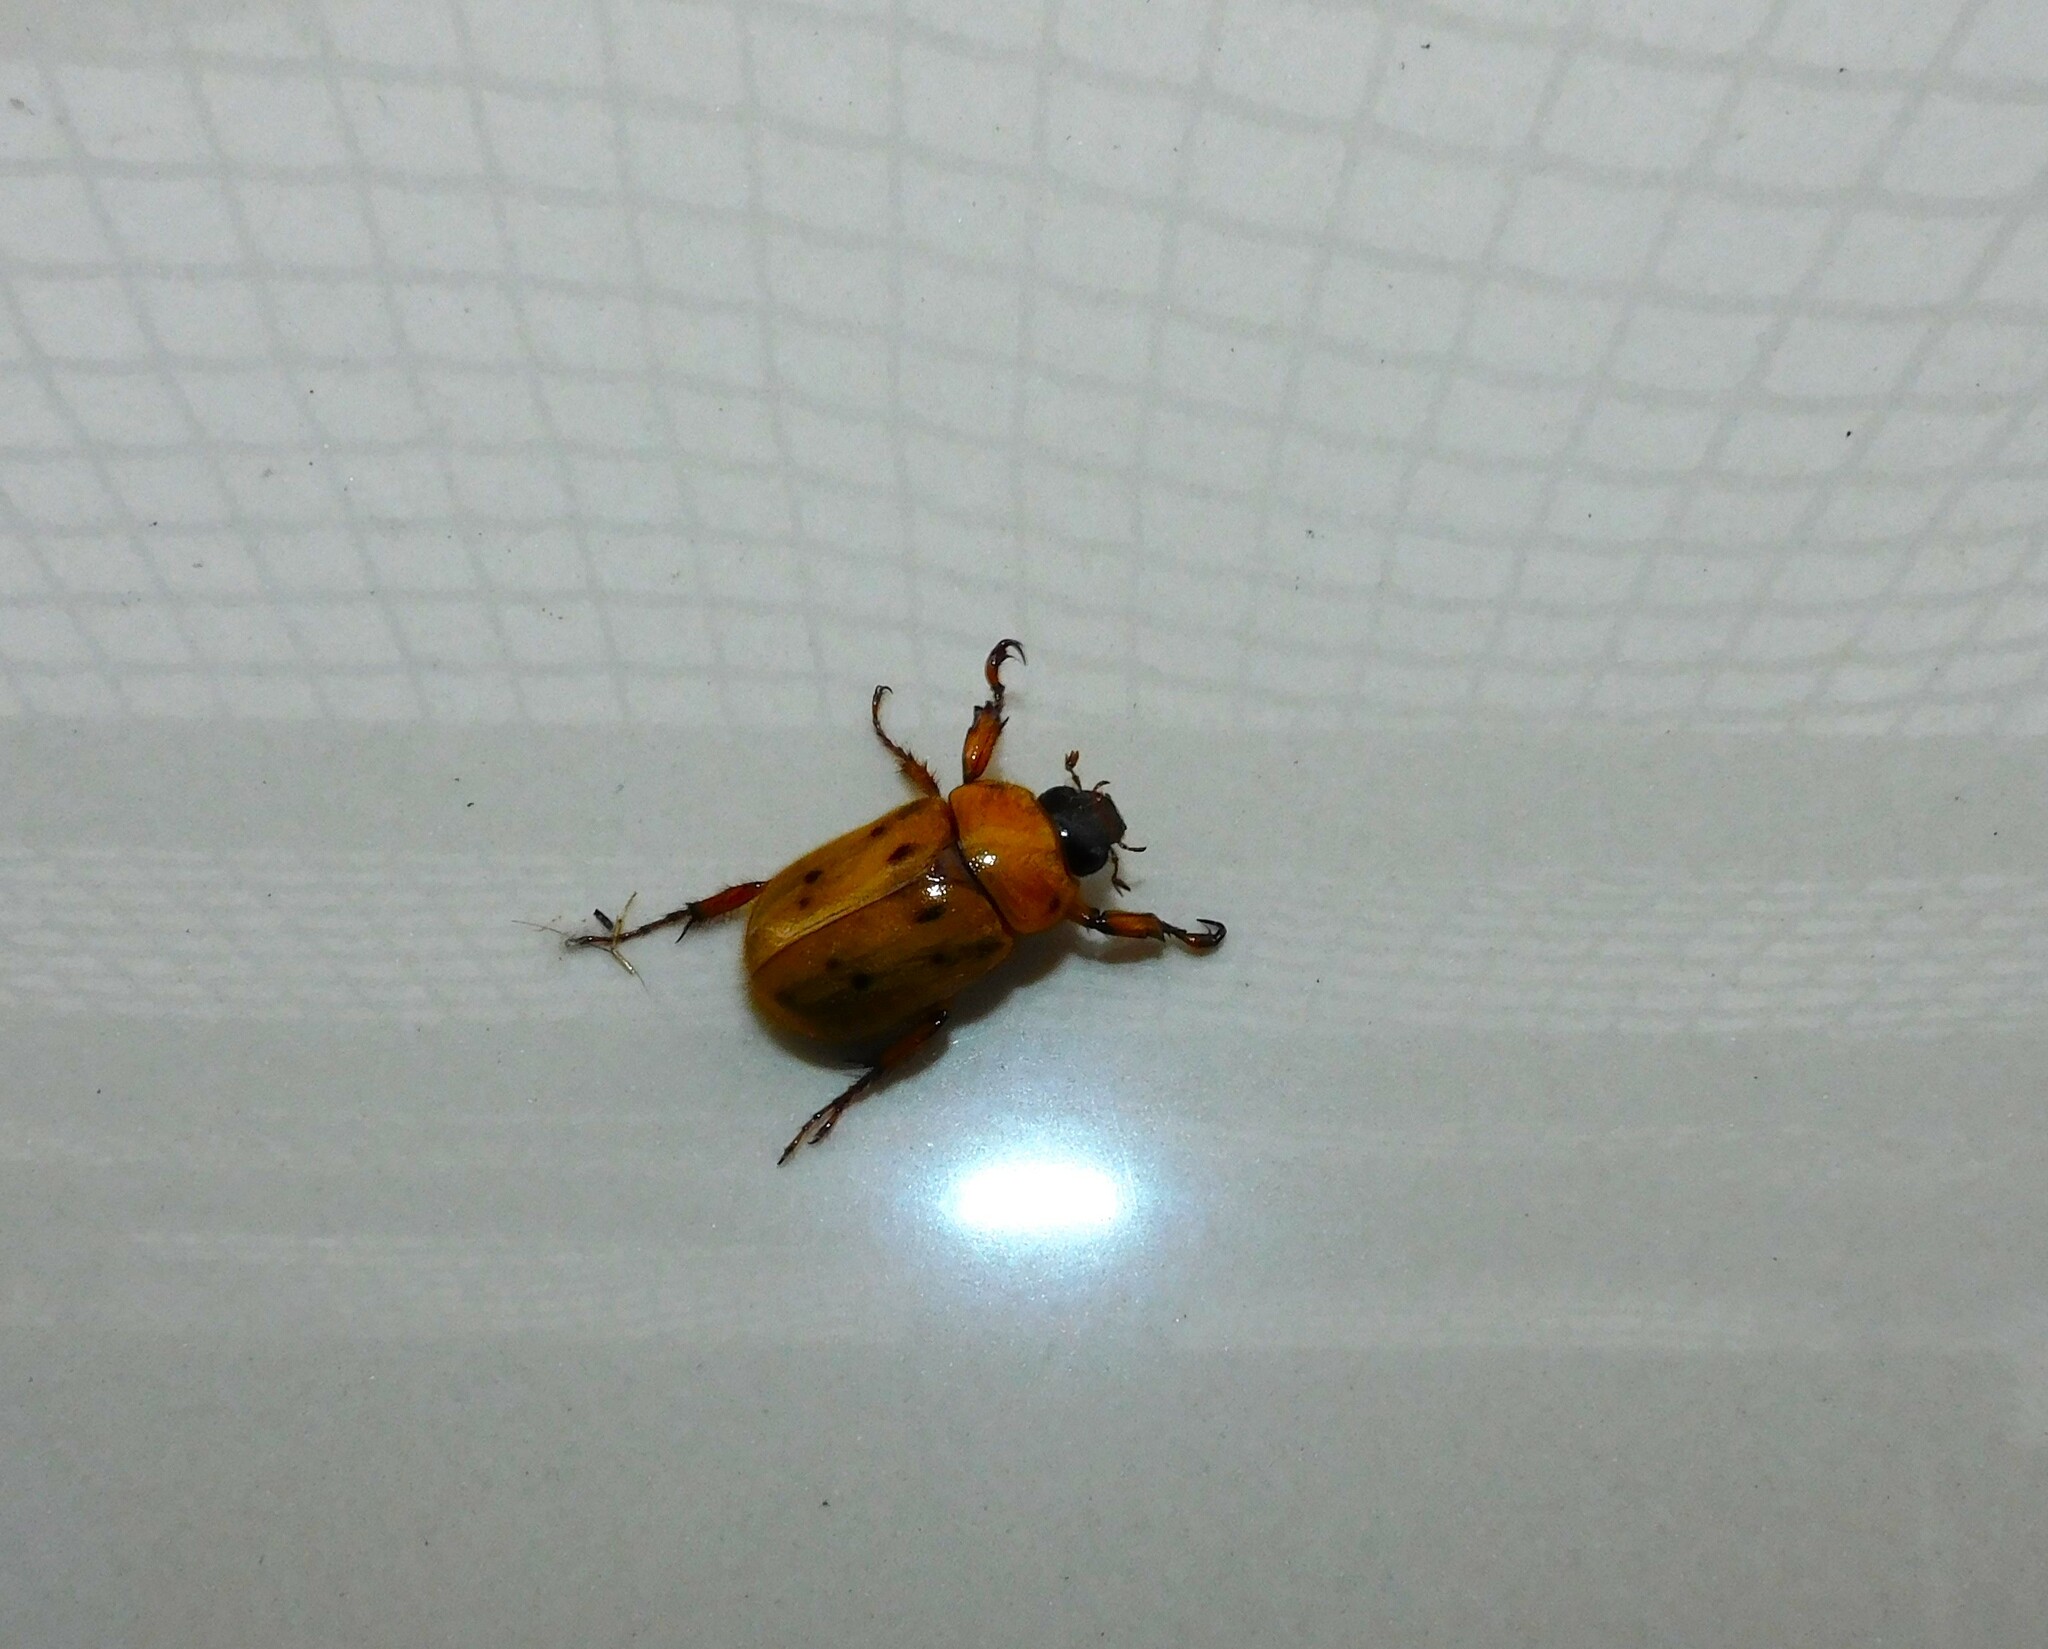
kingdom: Animalia
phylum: Arthropoda
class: Insecta
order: Coleoptera
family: Scarabaeidae
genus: Cyclocephala
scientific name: Cyclocephala brittoni
